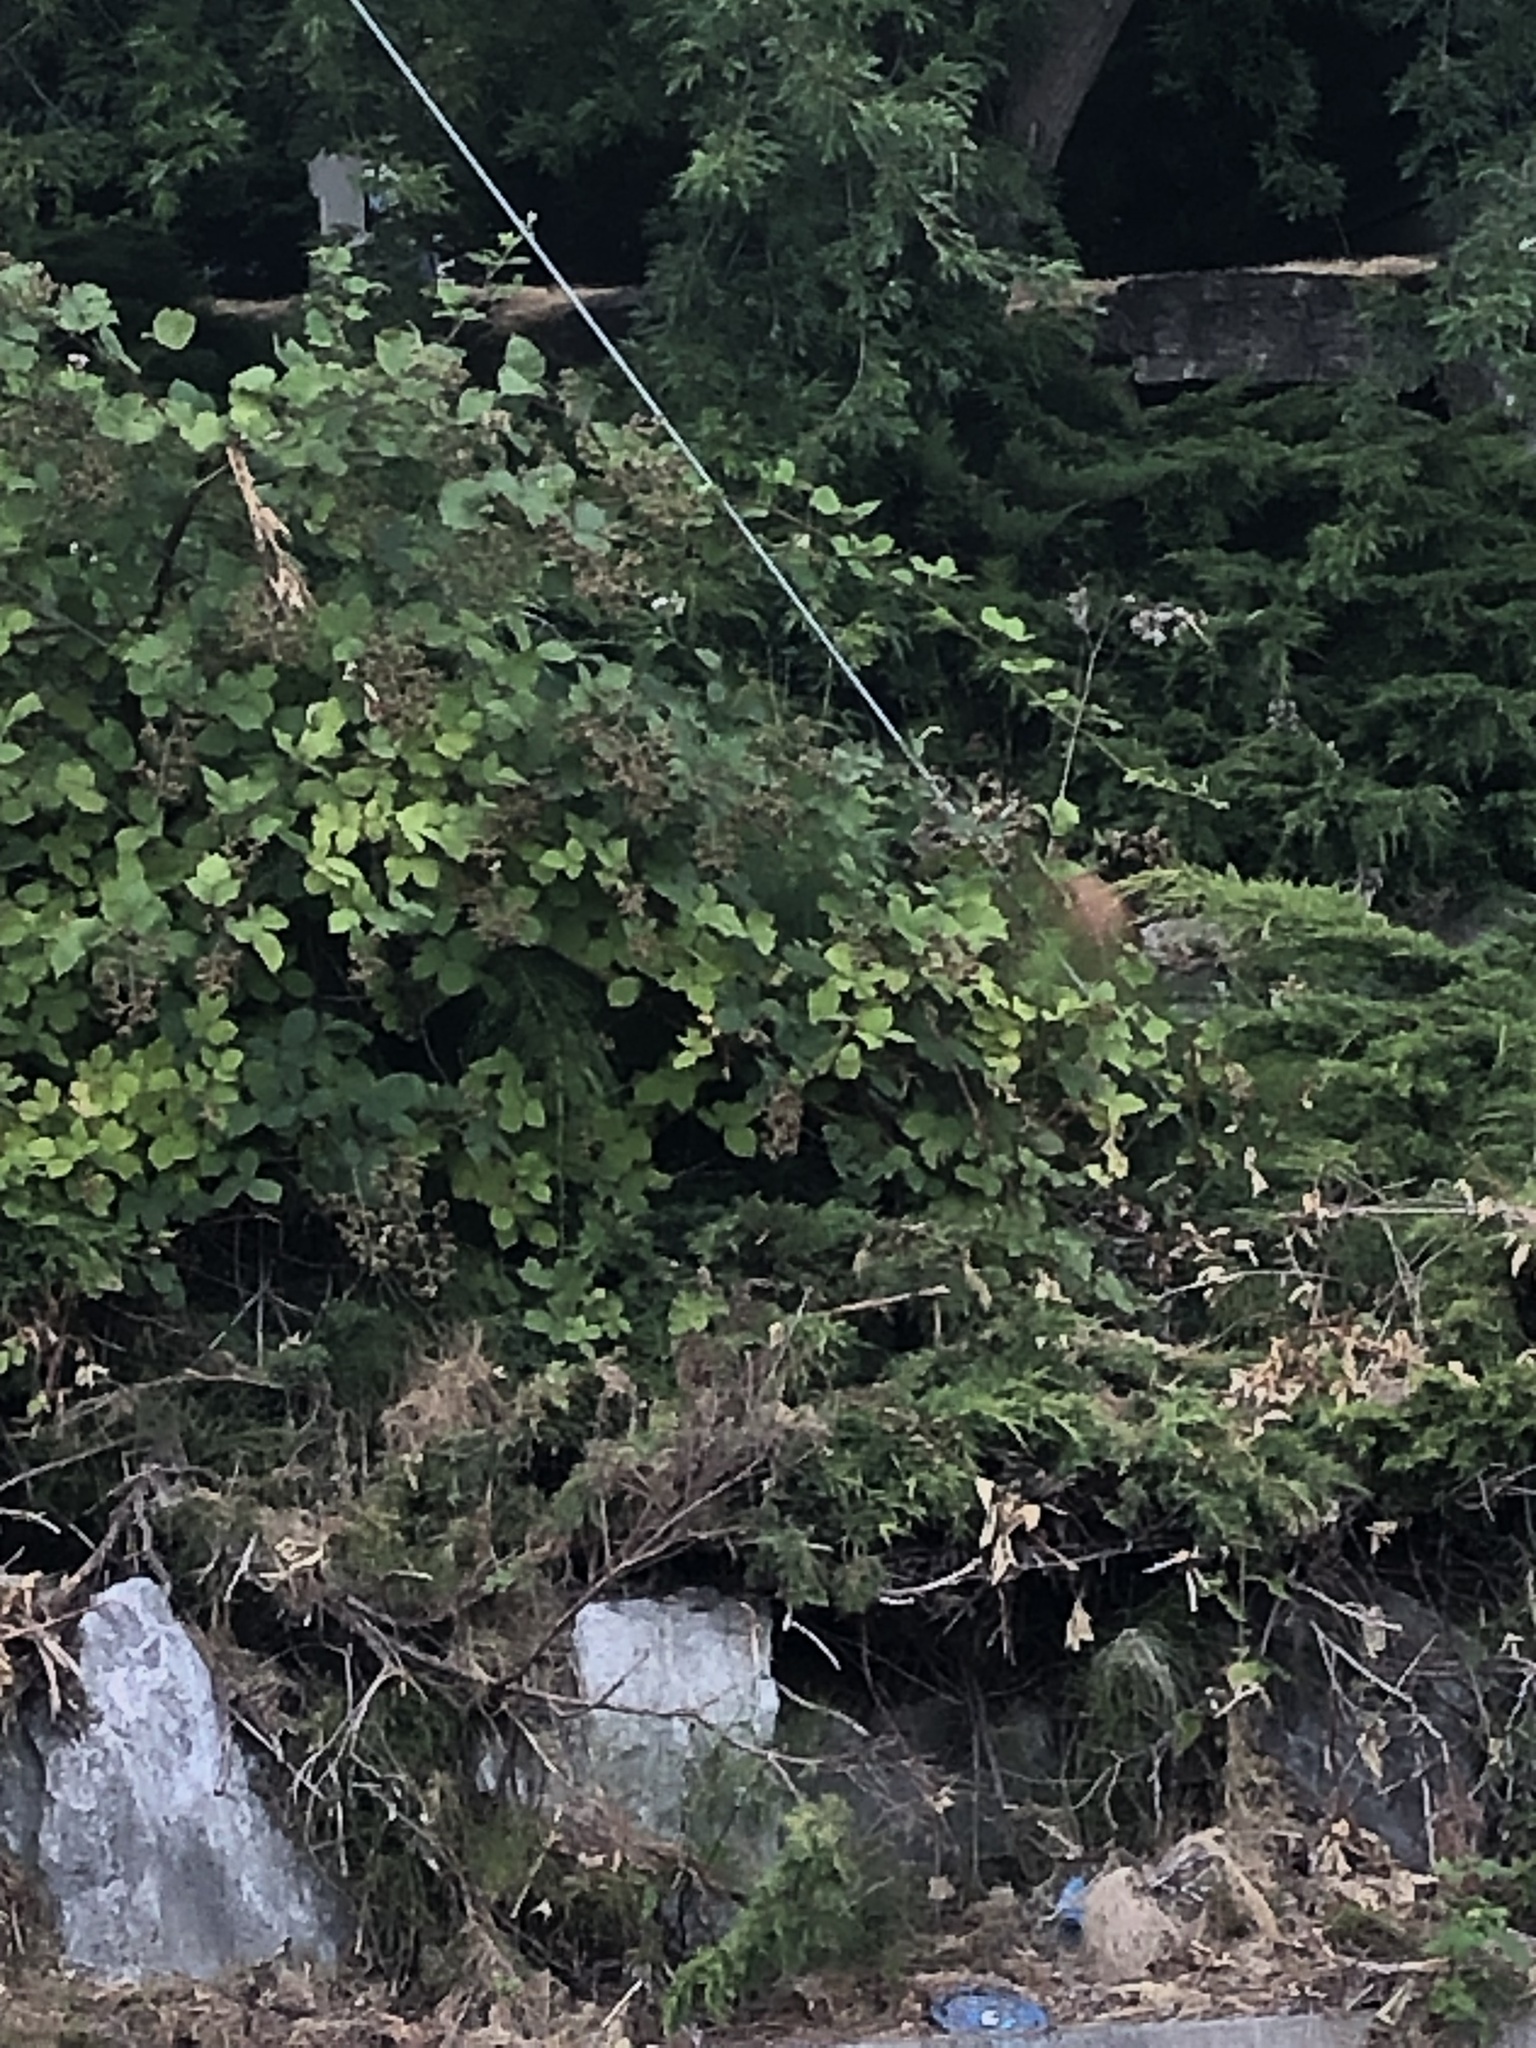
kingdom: Animalia
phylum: Chordata
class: Mammalia
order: Artiodactyla
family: Cervidae
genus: Odocoileus
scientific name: Odocoileus hemionus
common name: Mule deer
